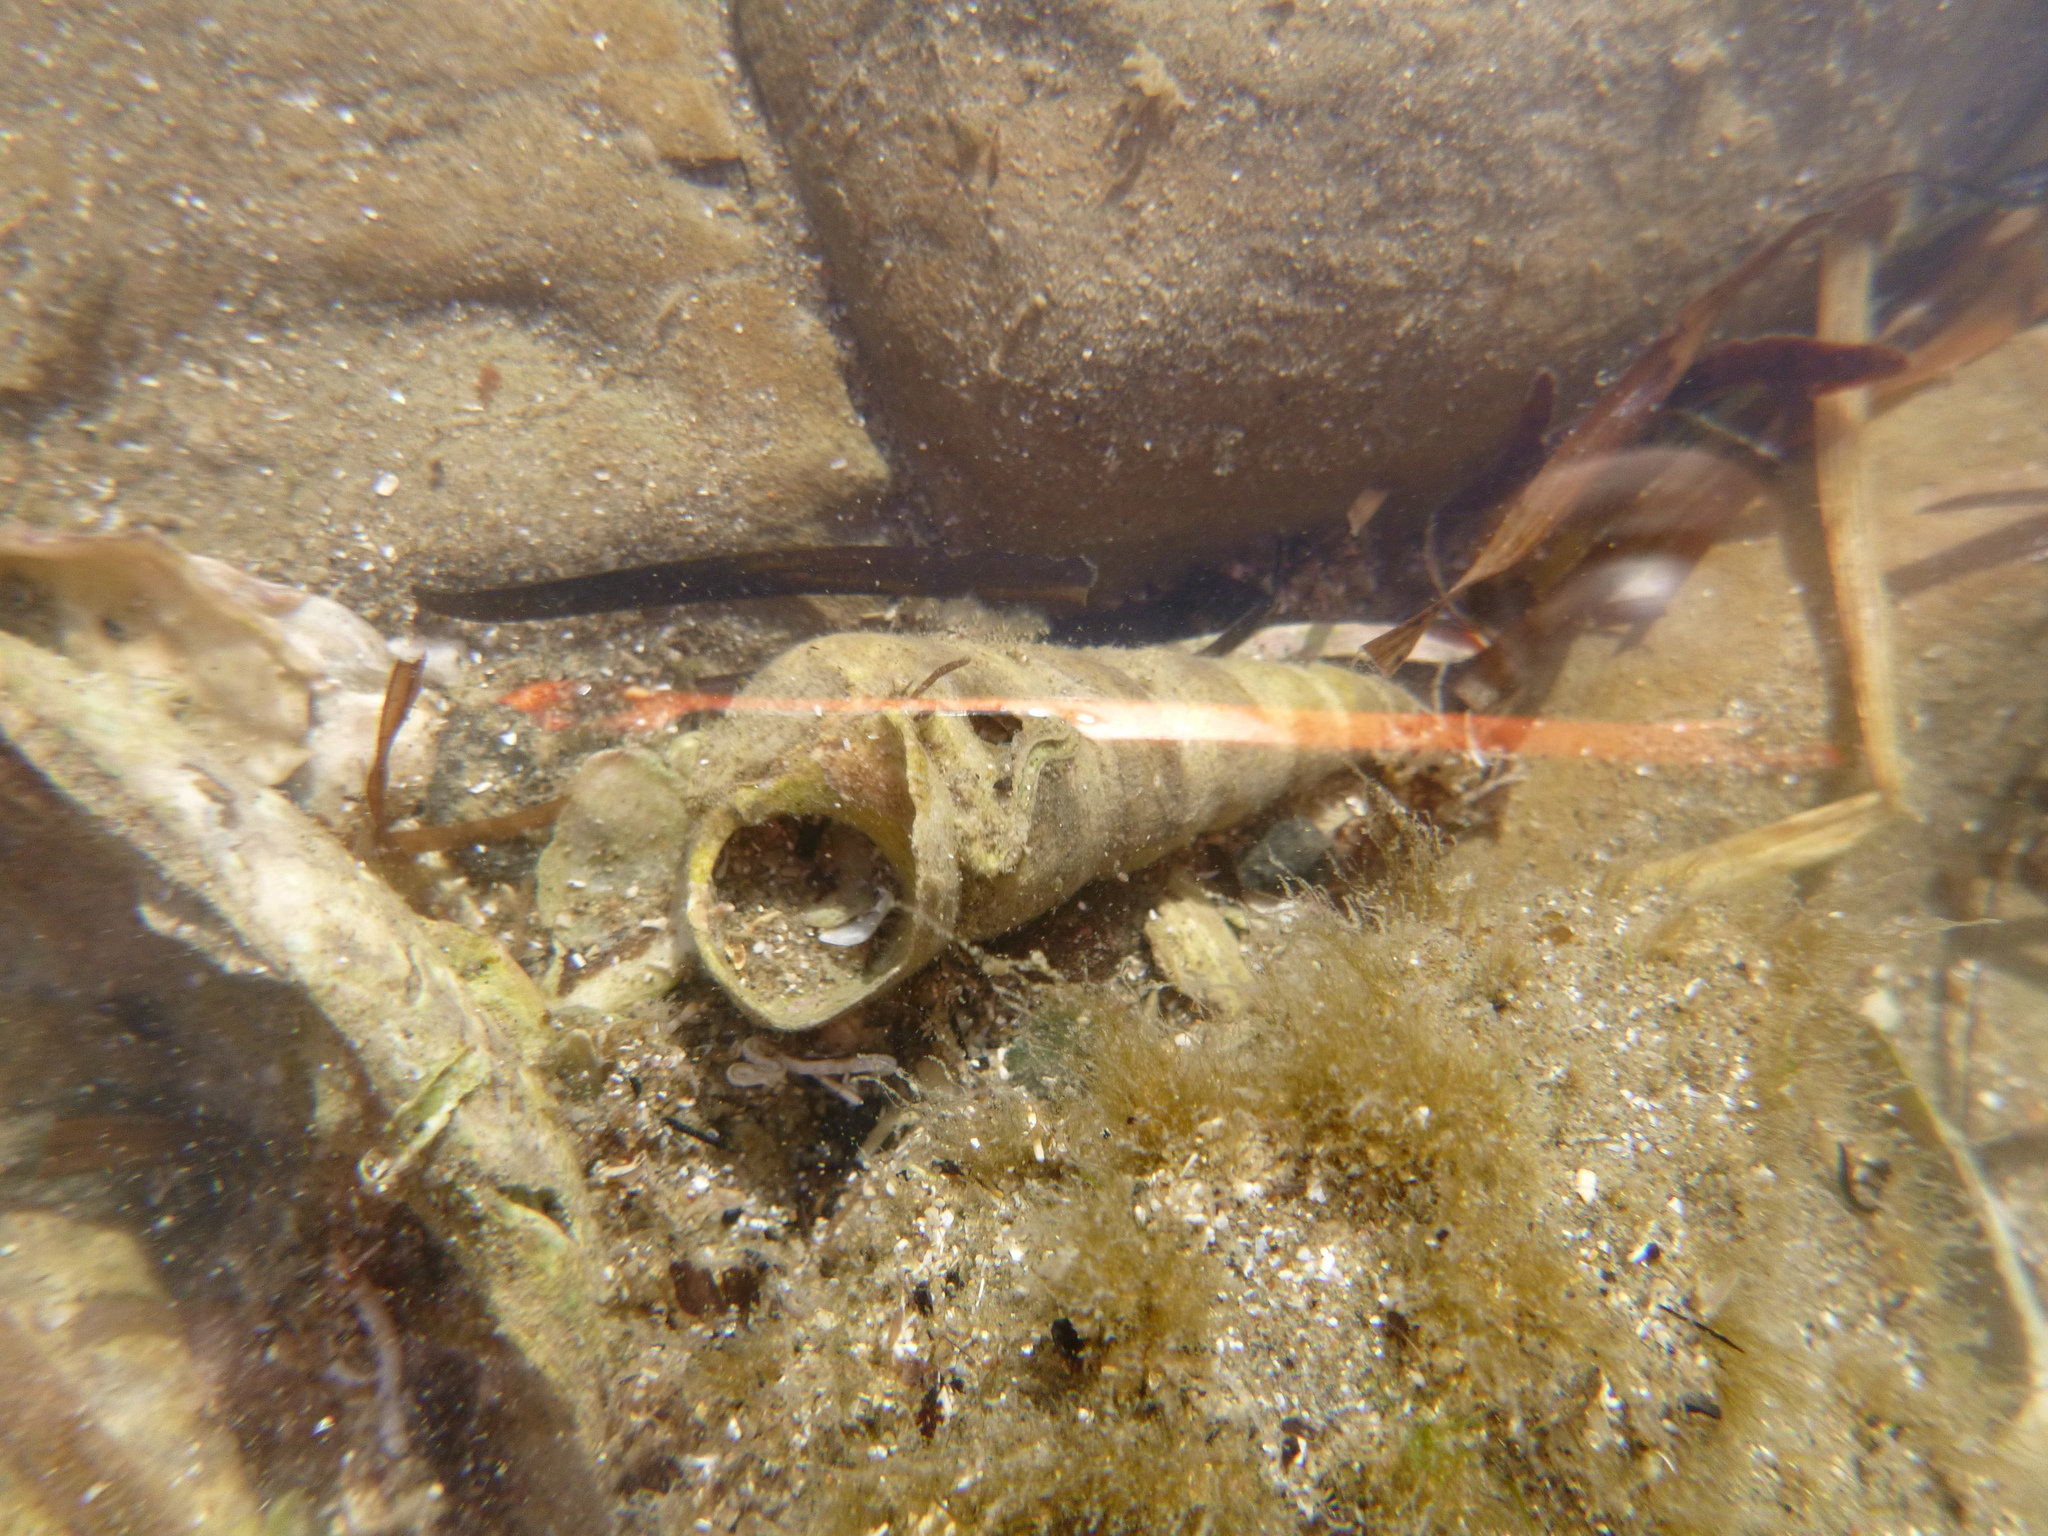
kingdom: Animalia
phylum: Mollusca
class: Gastropoda
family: Turritellidae
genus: Maoricolpus
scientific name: Maoricolpus roseus
